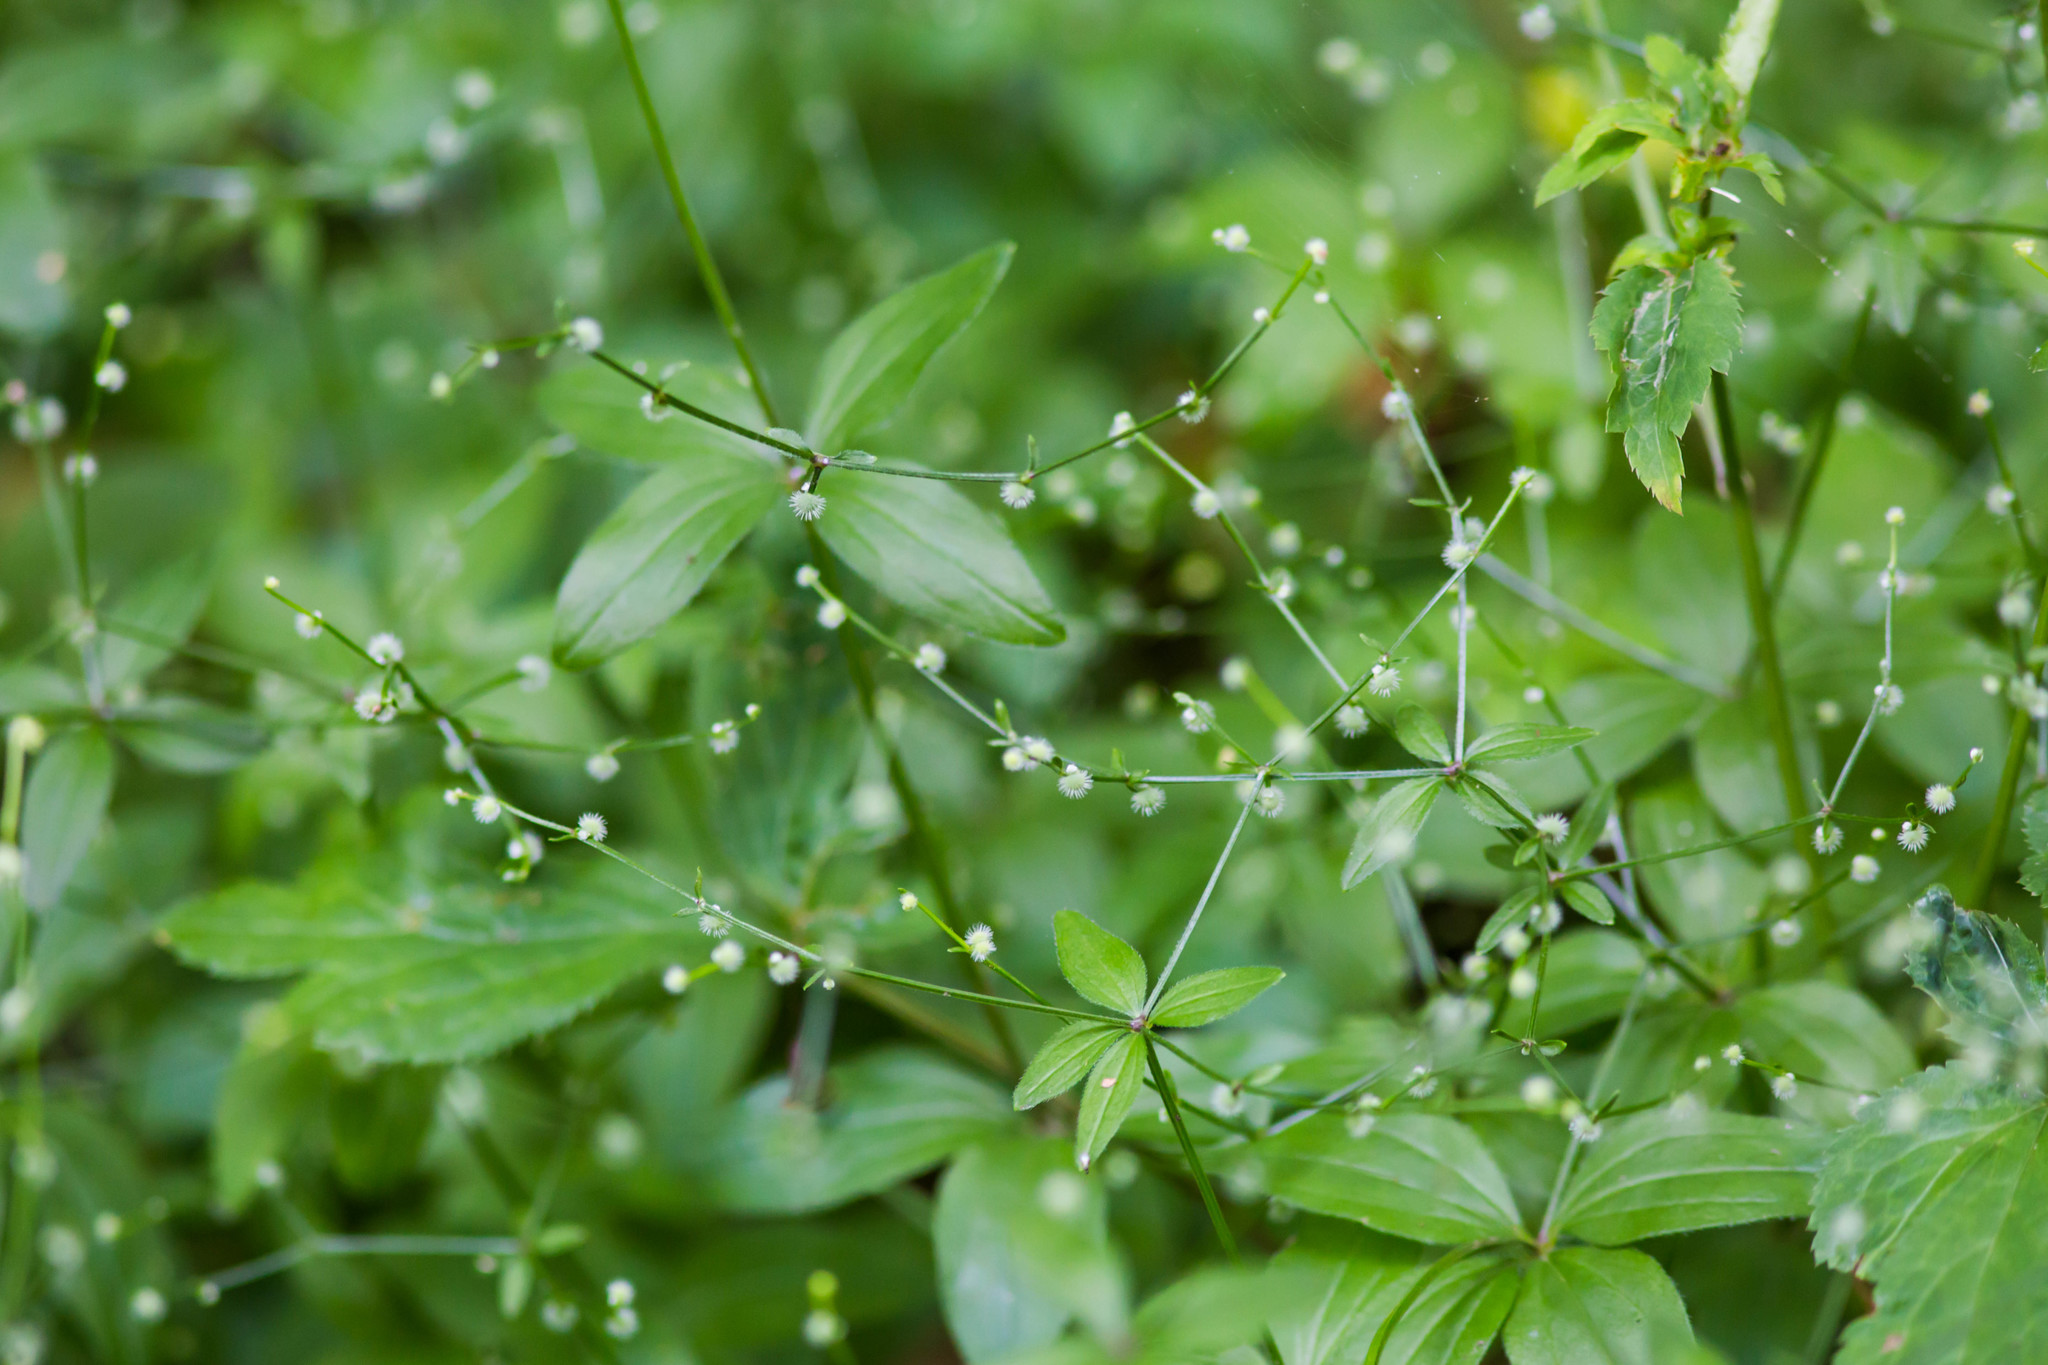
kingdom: Plantae
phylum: Tracheophyta
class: Magnoliopsida
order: Gentianales
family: Rubiaceae
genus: Galium
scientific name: Galium circaezans
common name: Forest bedstraw
